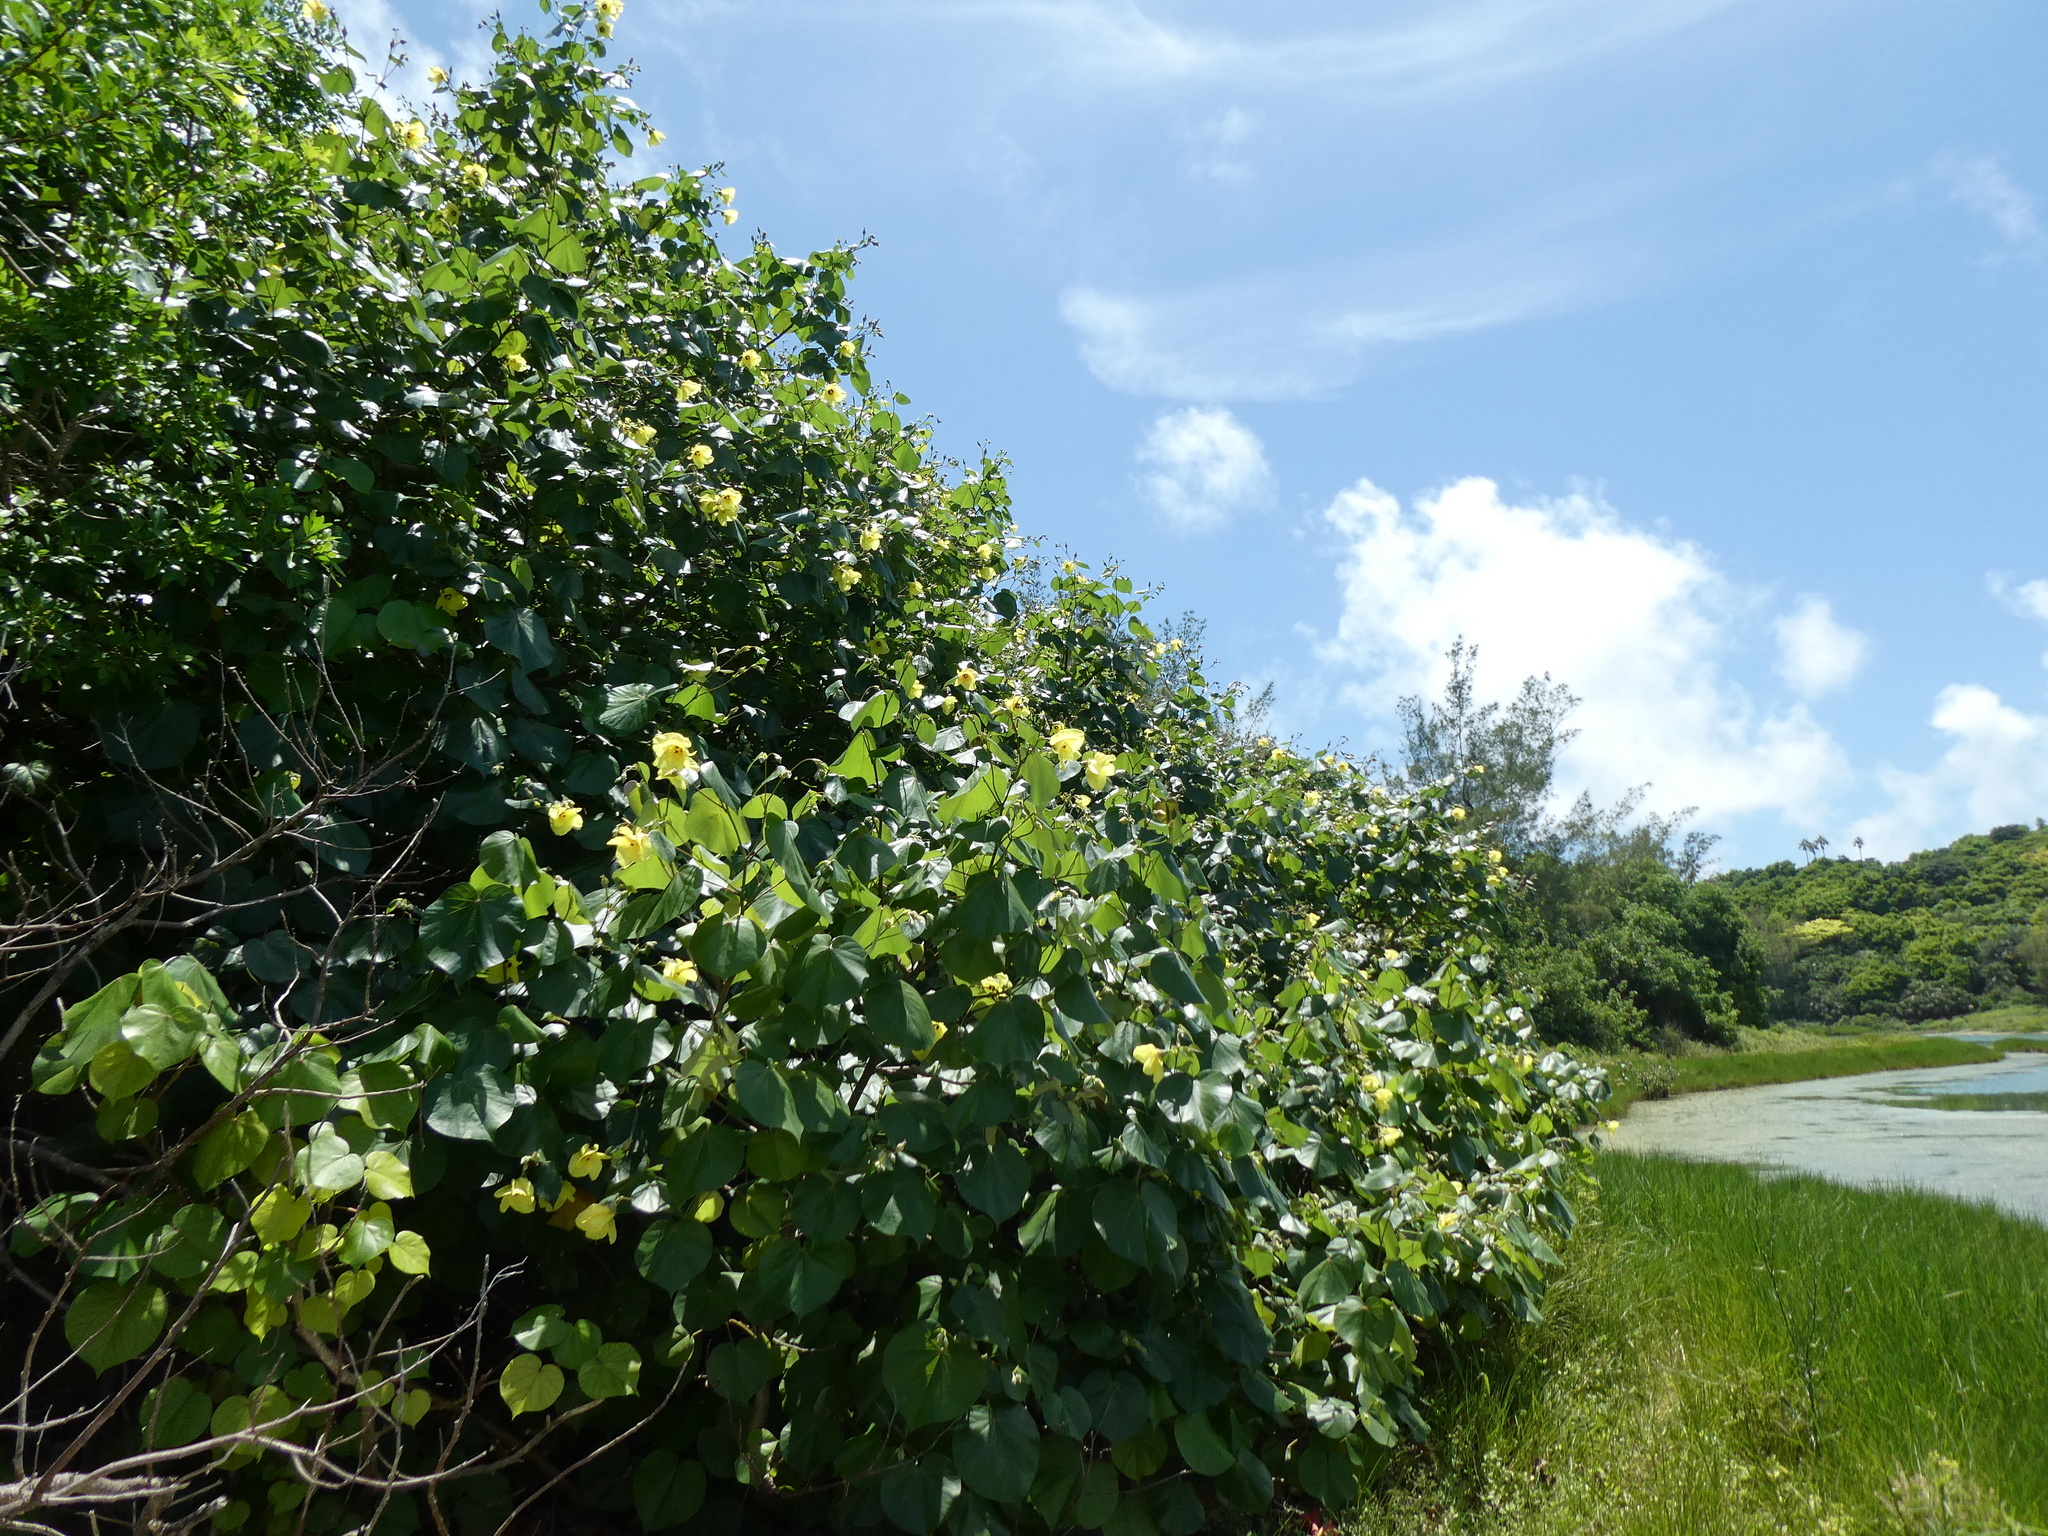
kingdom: Plantae
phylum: Tracheophyta
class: Magnoliopsida
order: Malvales
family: Malvaceae
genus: Talipariti
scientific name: Talipariti tiliaceum
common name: Sea hibiscus
